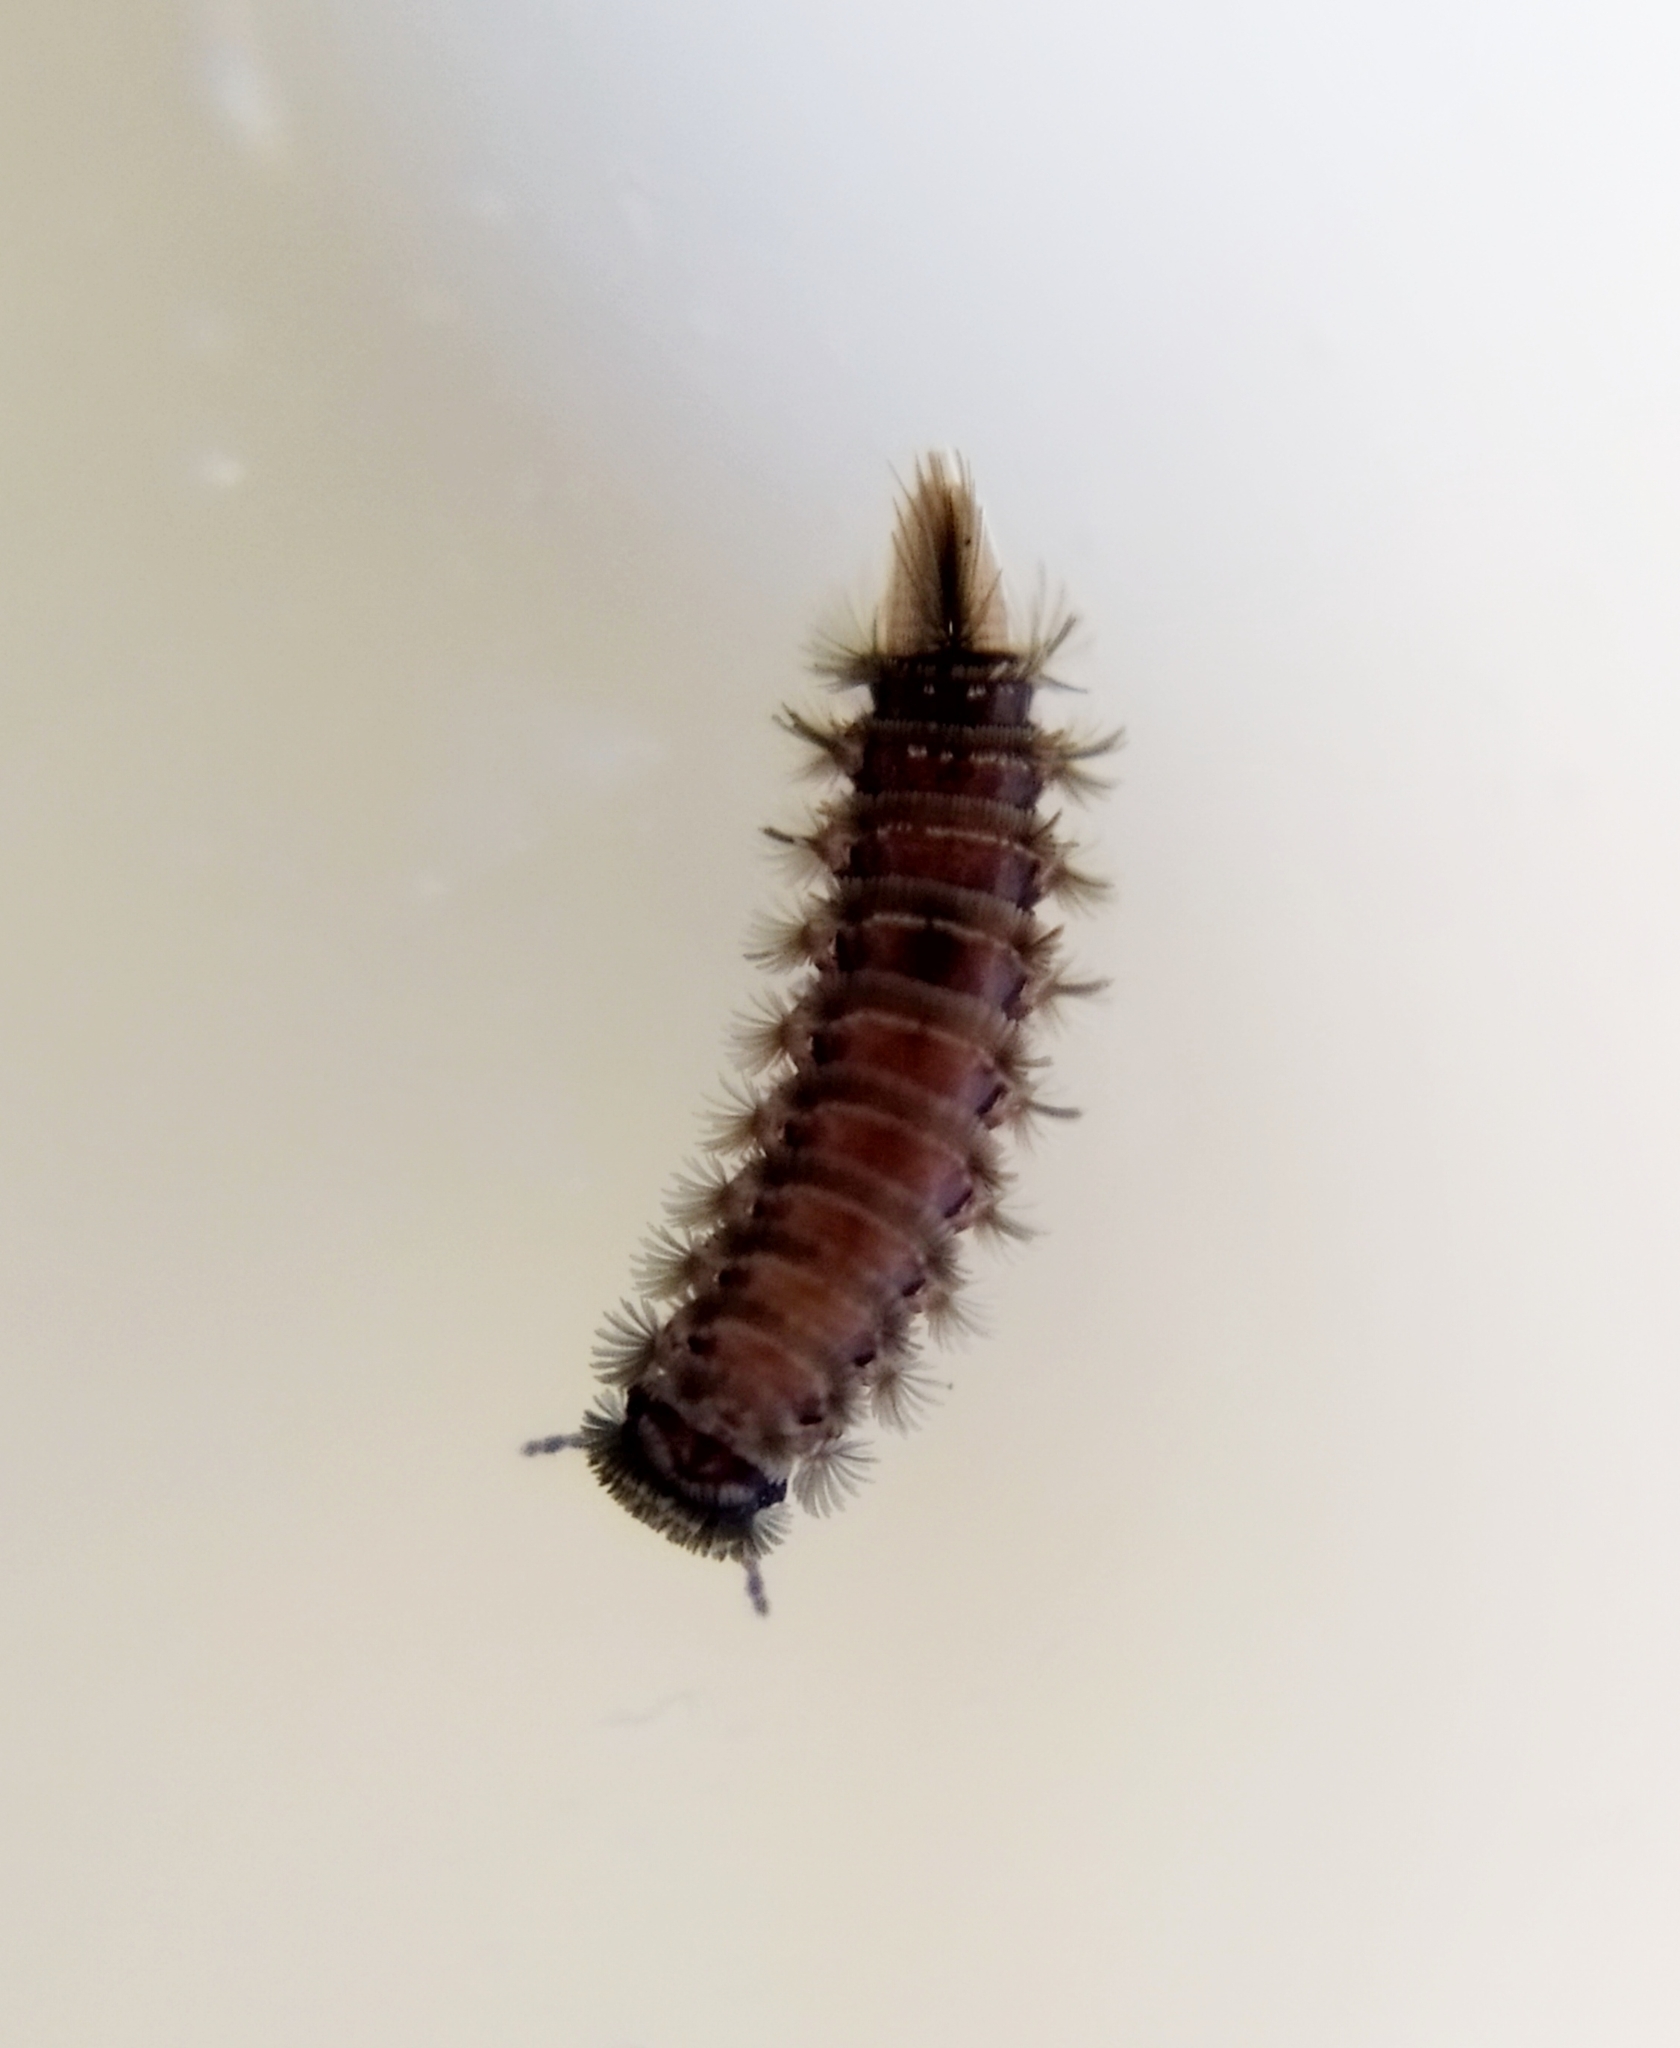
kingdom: Animalia
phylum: Arthropoda
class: Diplopoda
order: Polyxenida
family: Polyxenidae
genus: Polyxenus
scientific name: Polyxenus lagurus
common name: Bristly millipede
